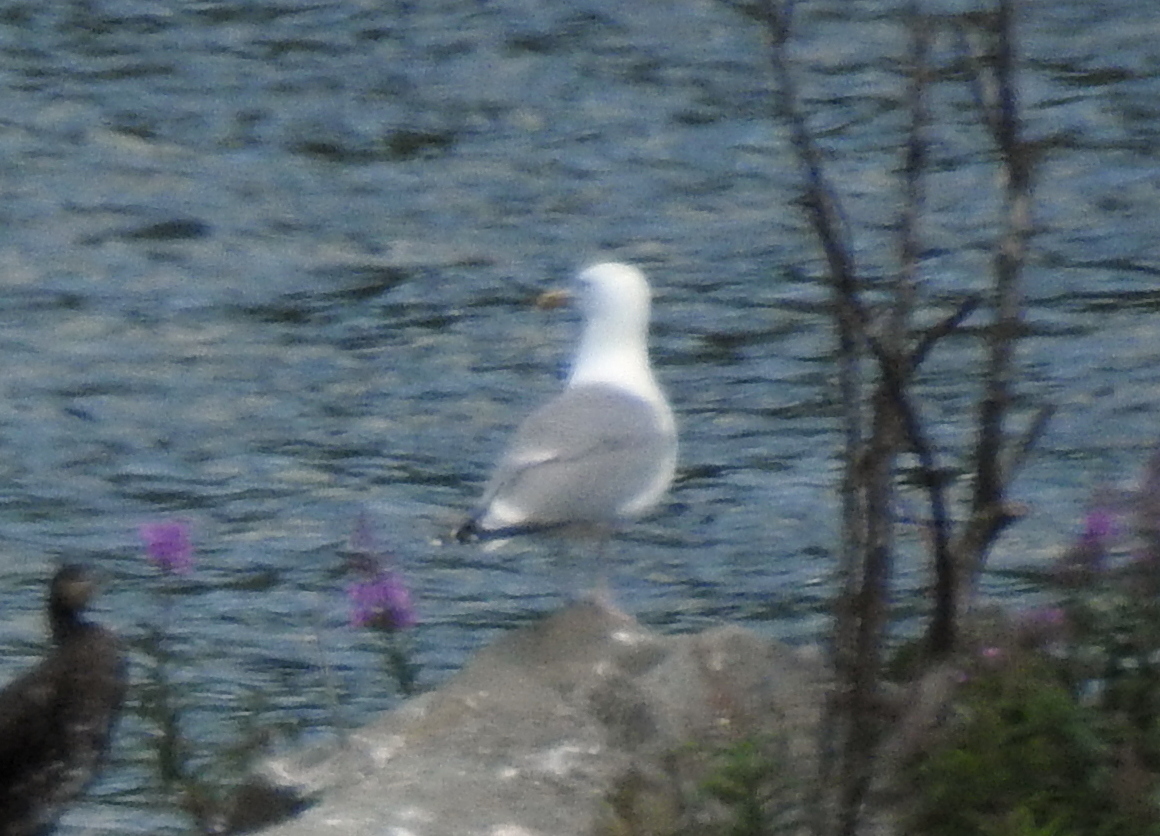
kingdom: Animalia
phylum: Chordata
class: Aves
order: Charadriiformes
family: Laridae
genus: Larus
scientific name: Larus argentatus
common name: Herring gull
